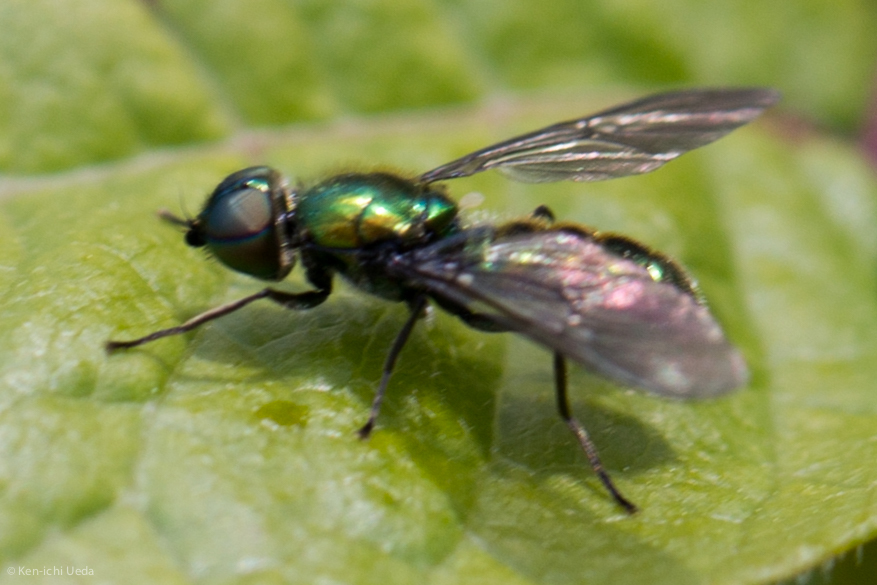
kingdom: Animalia
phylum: Arthropoda
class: Insecta
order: Diptera
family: Stratiomyidae
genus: Sargus
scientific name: Sargus viridis
